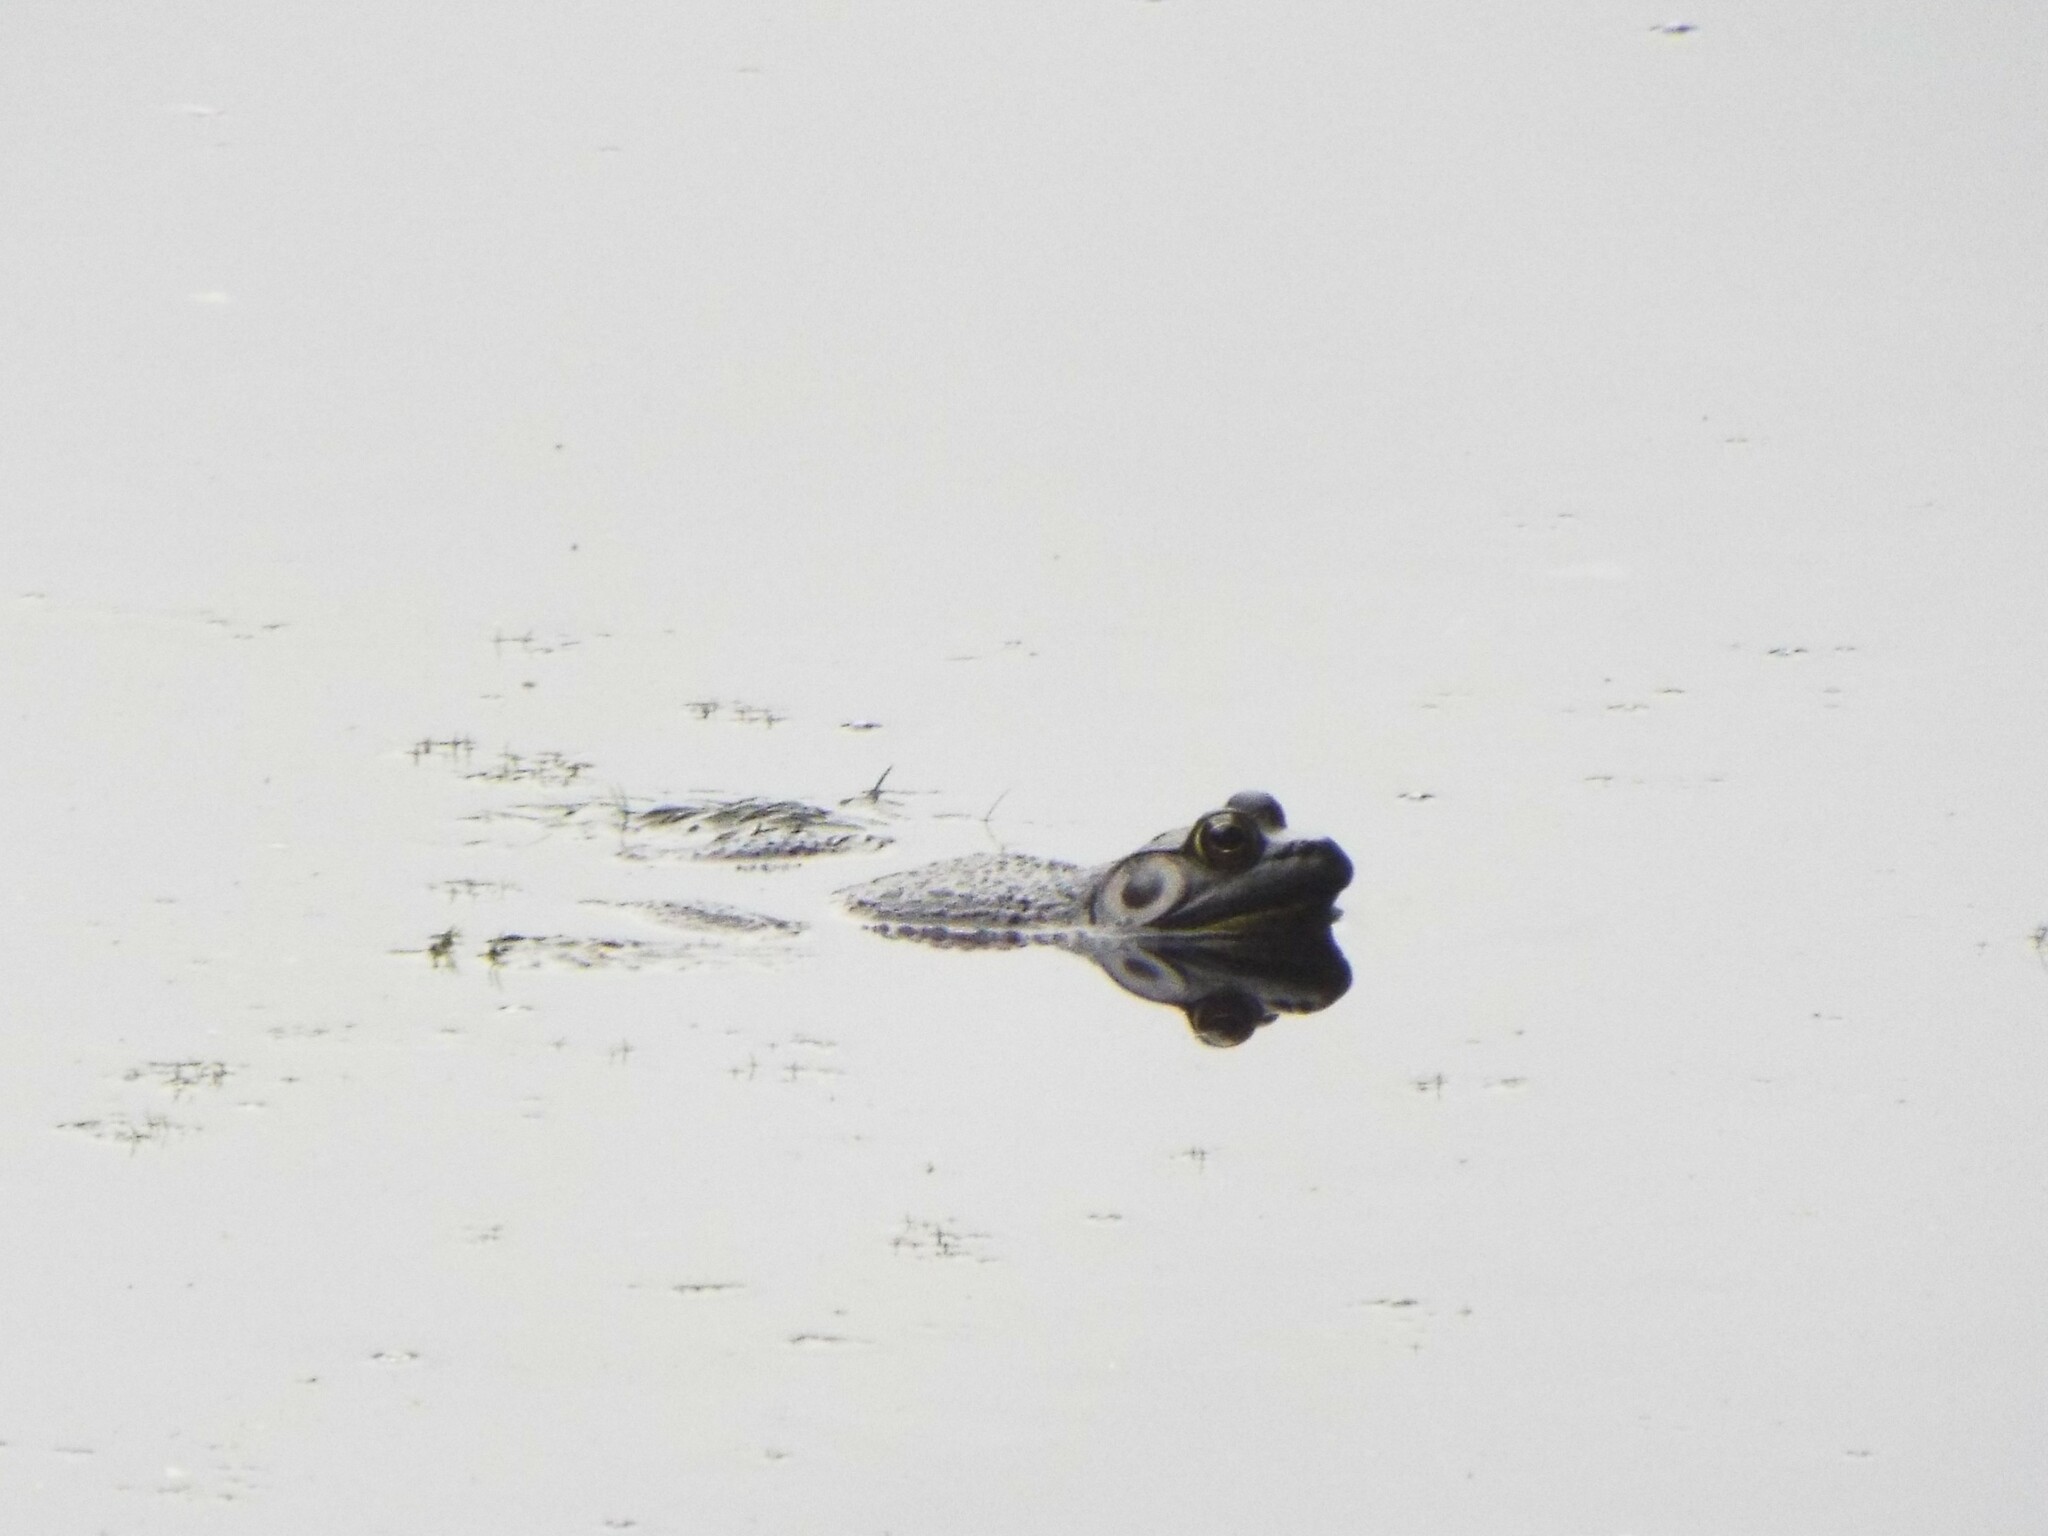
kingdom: Animalia
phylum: Chordata
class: Amphibia
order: Anura
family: Ranidae
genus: Lithobates
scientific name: Lithobates catesbeianus
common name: American bullfrog
